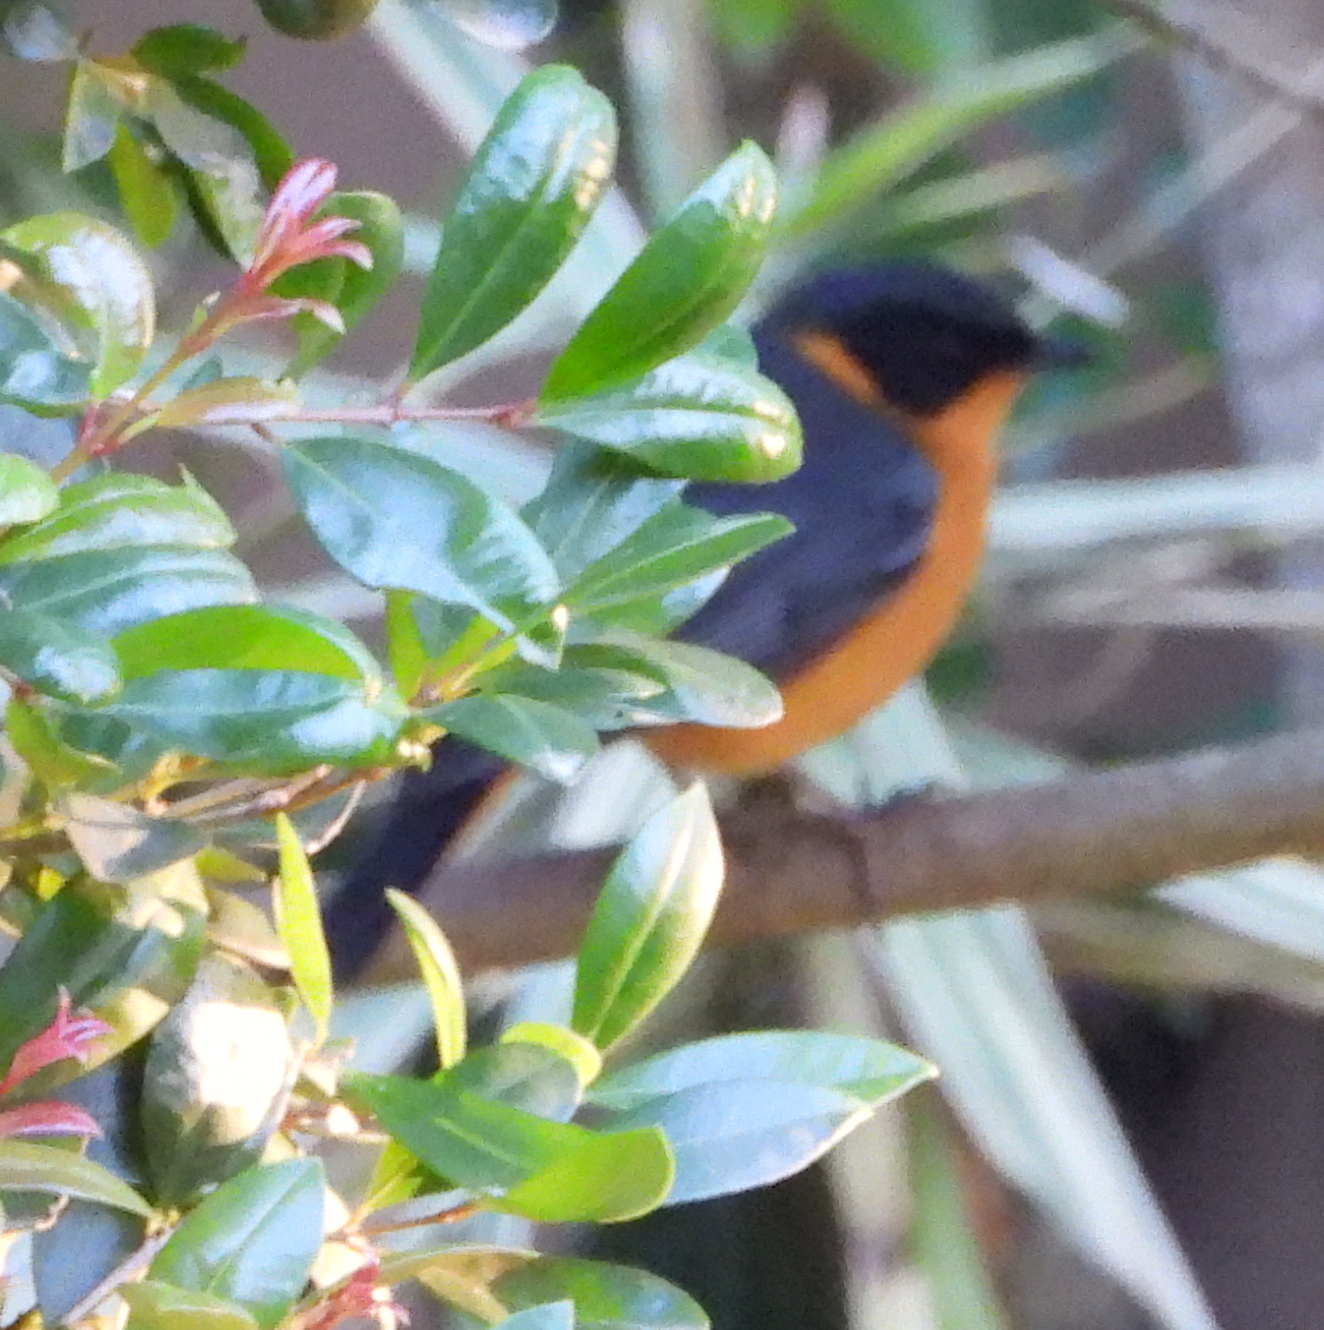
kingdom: Animalia
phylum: Chordata
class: Aves
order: Passeriformes
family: Muscicapidae
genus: Cossypha
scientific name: Cossypha dichroa
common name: Chorister robin-chat
